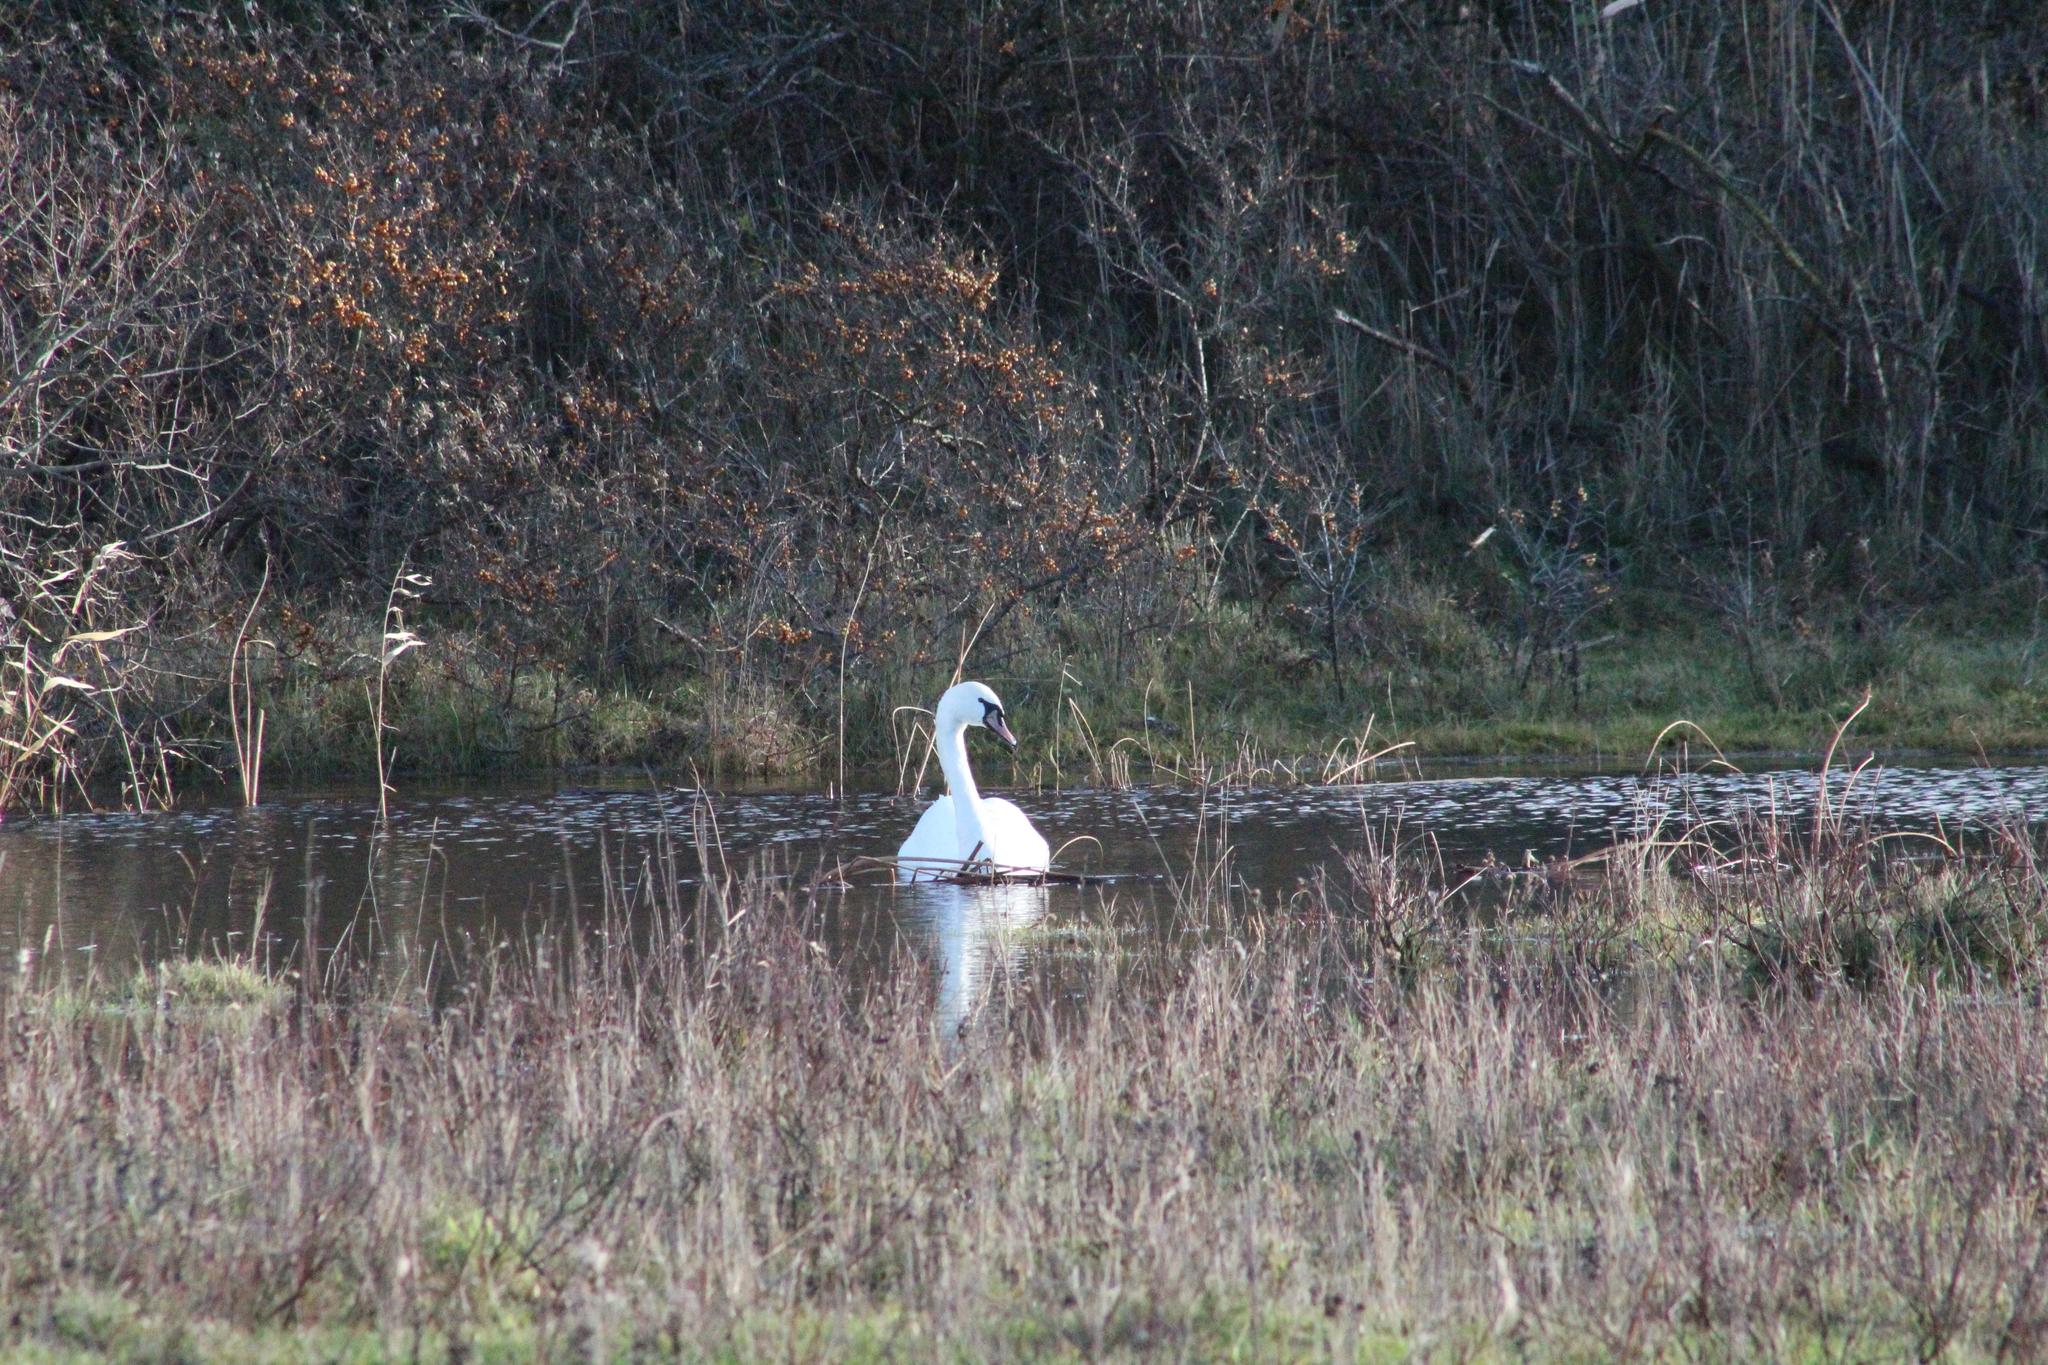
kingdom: Animalia
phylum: Chordata
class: Aves
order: Anseriformes
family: Anatidae
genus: Cygnus
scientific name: Cygnus olor
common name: Mute swan
